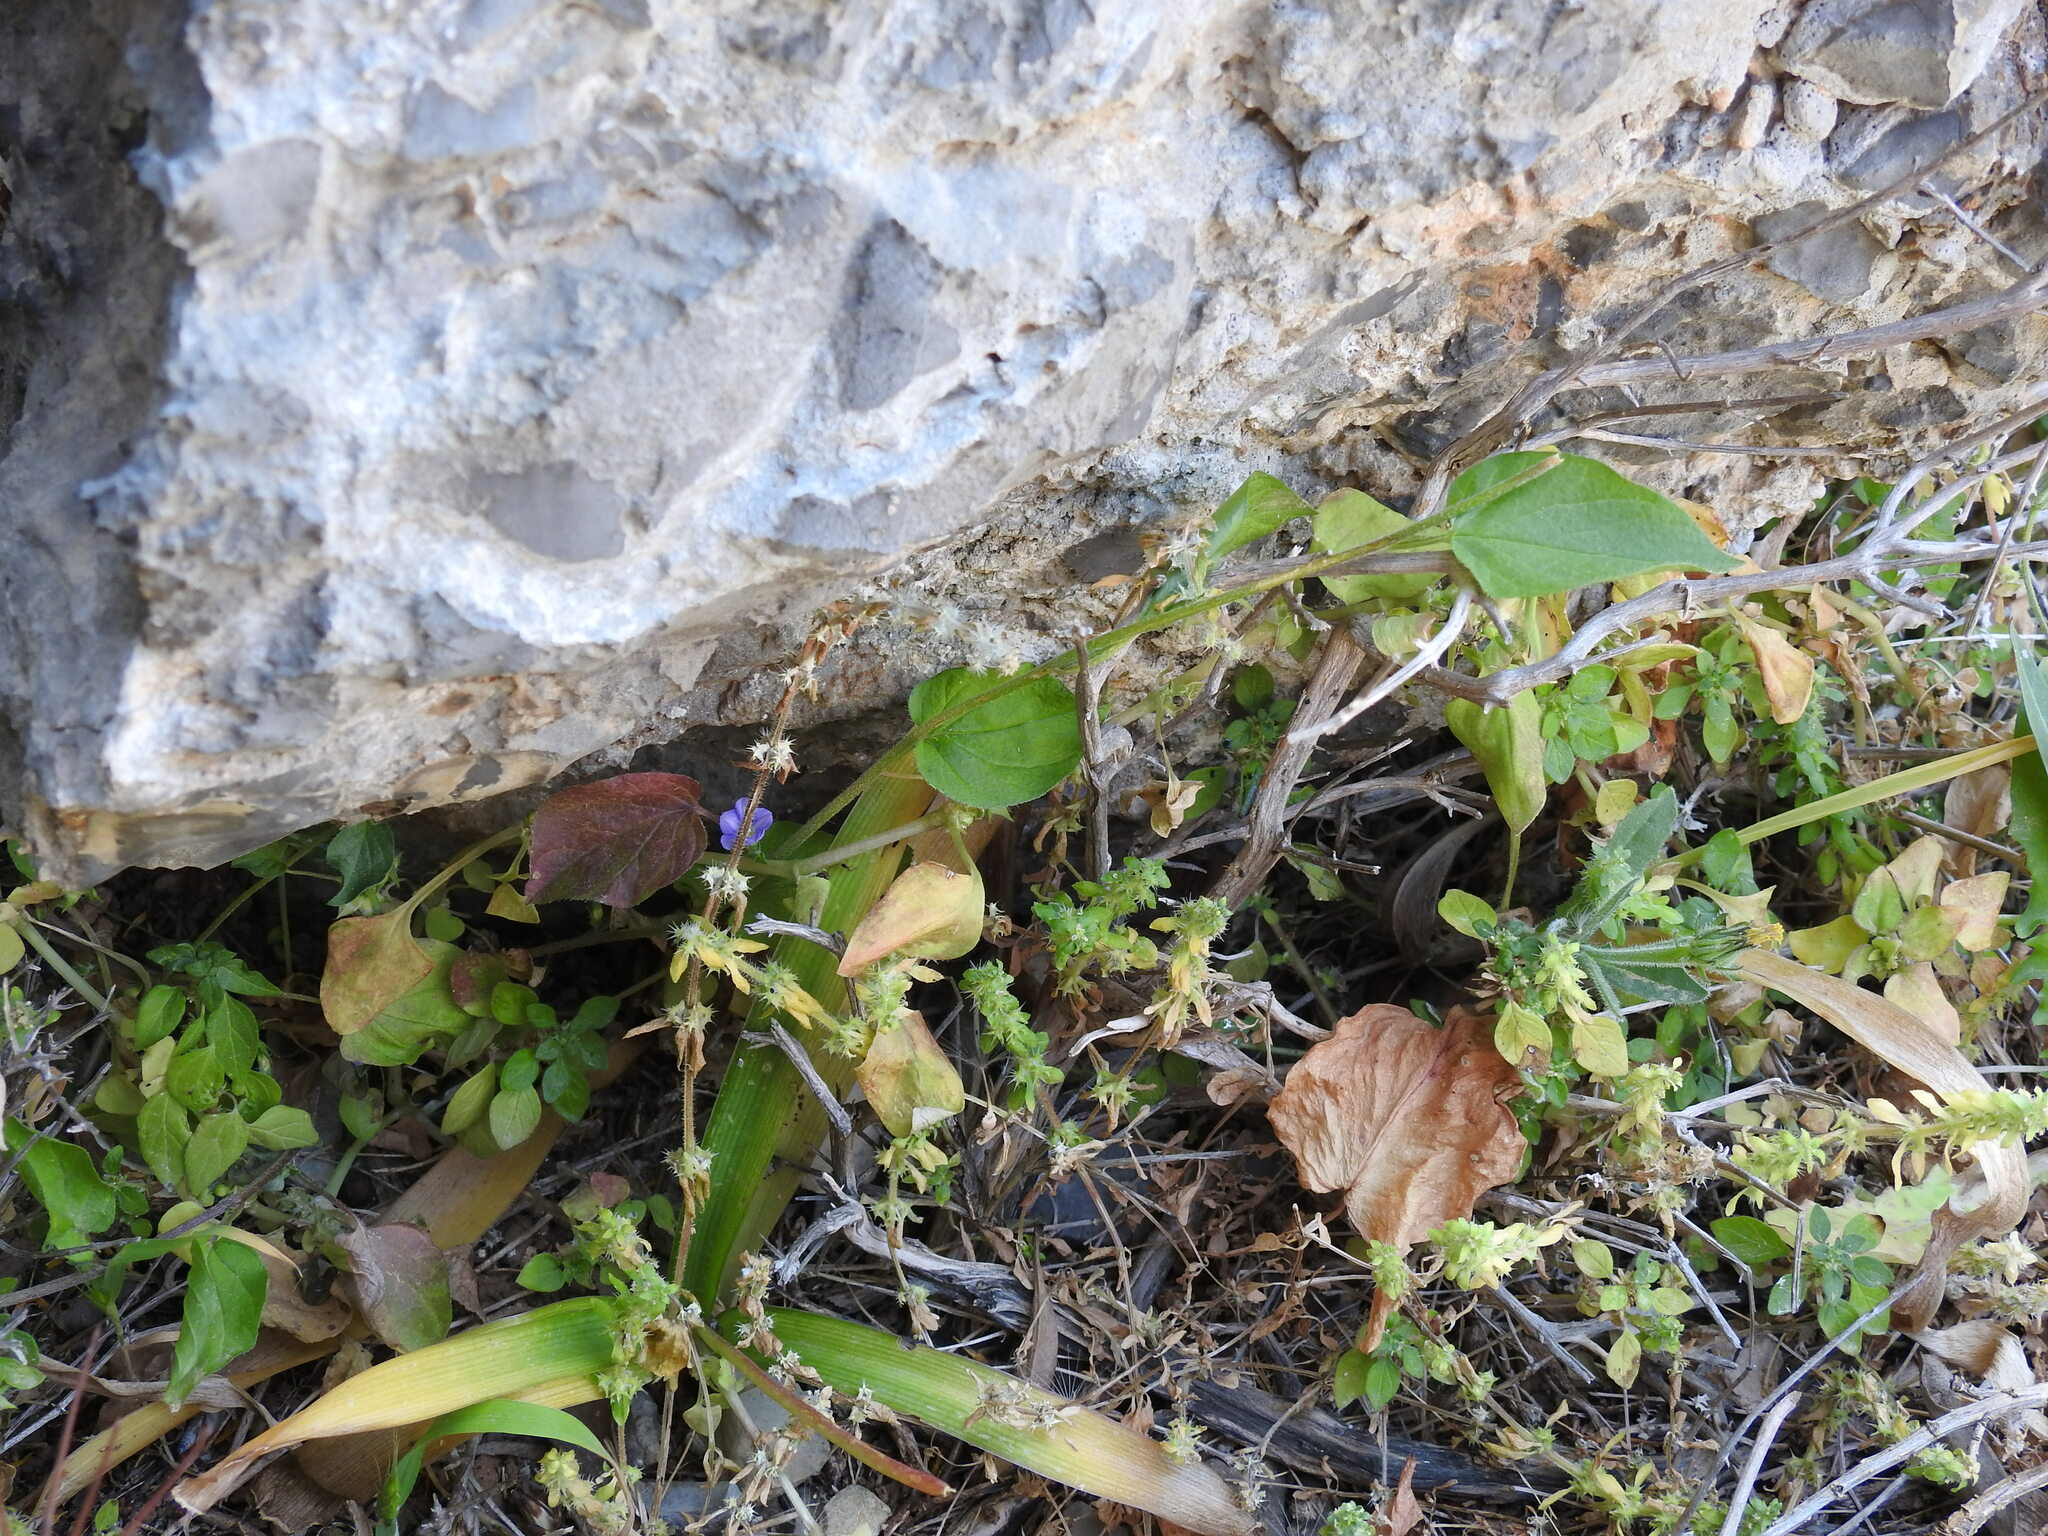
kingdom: Plantae
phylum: Tracheophyta
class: Magnoliopsida
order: Solanales
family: Convolvulaceae
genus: Convolvulus
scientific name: Convolvulus siculus
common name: Small blue-convolvulus
